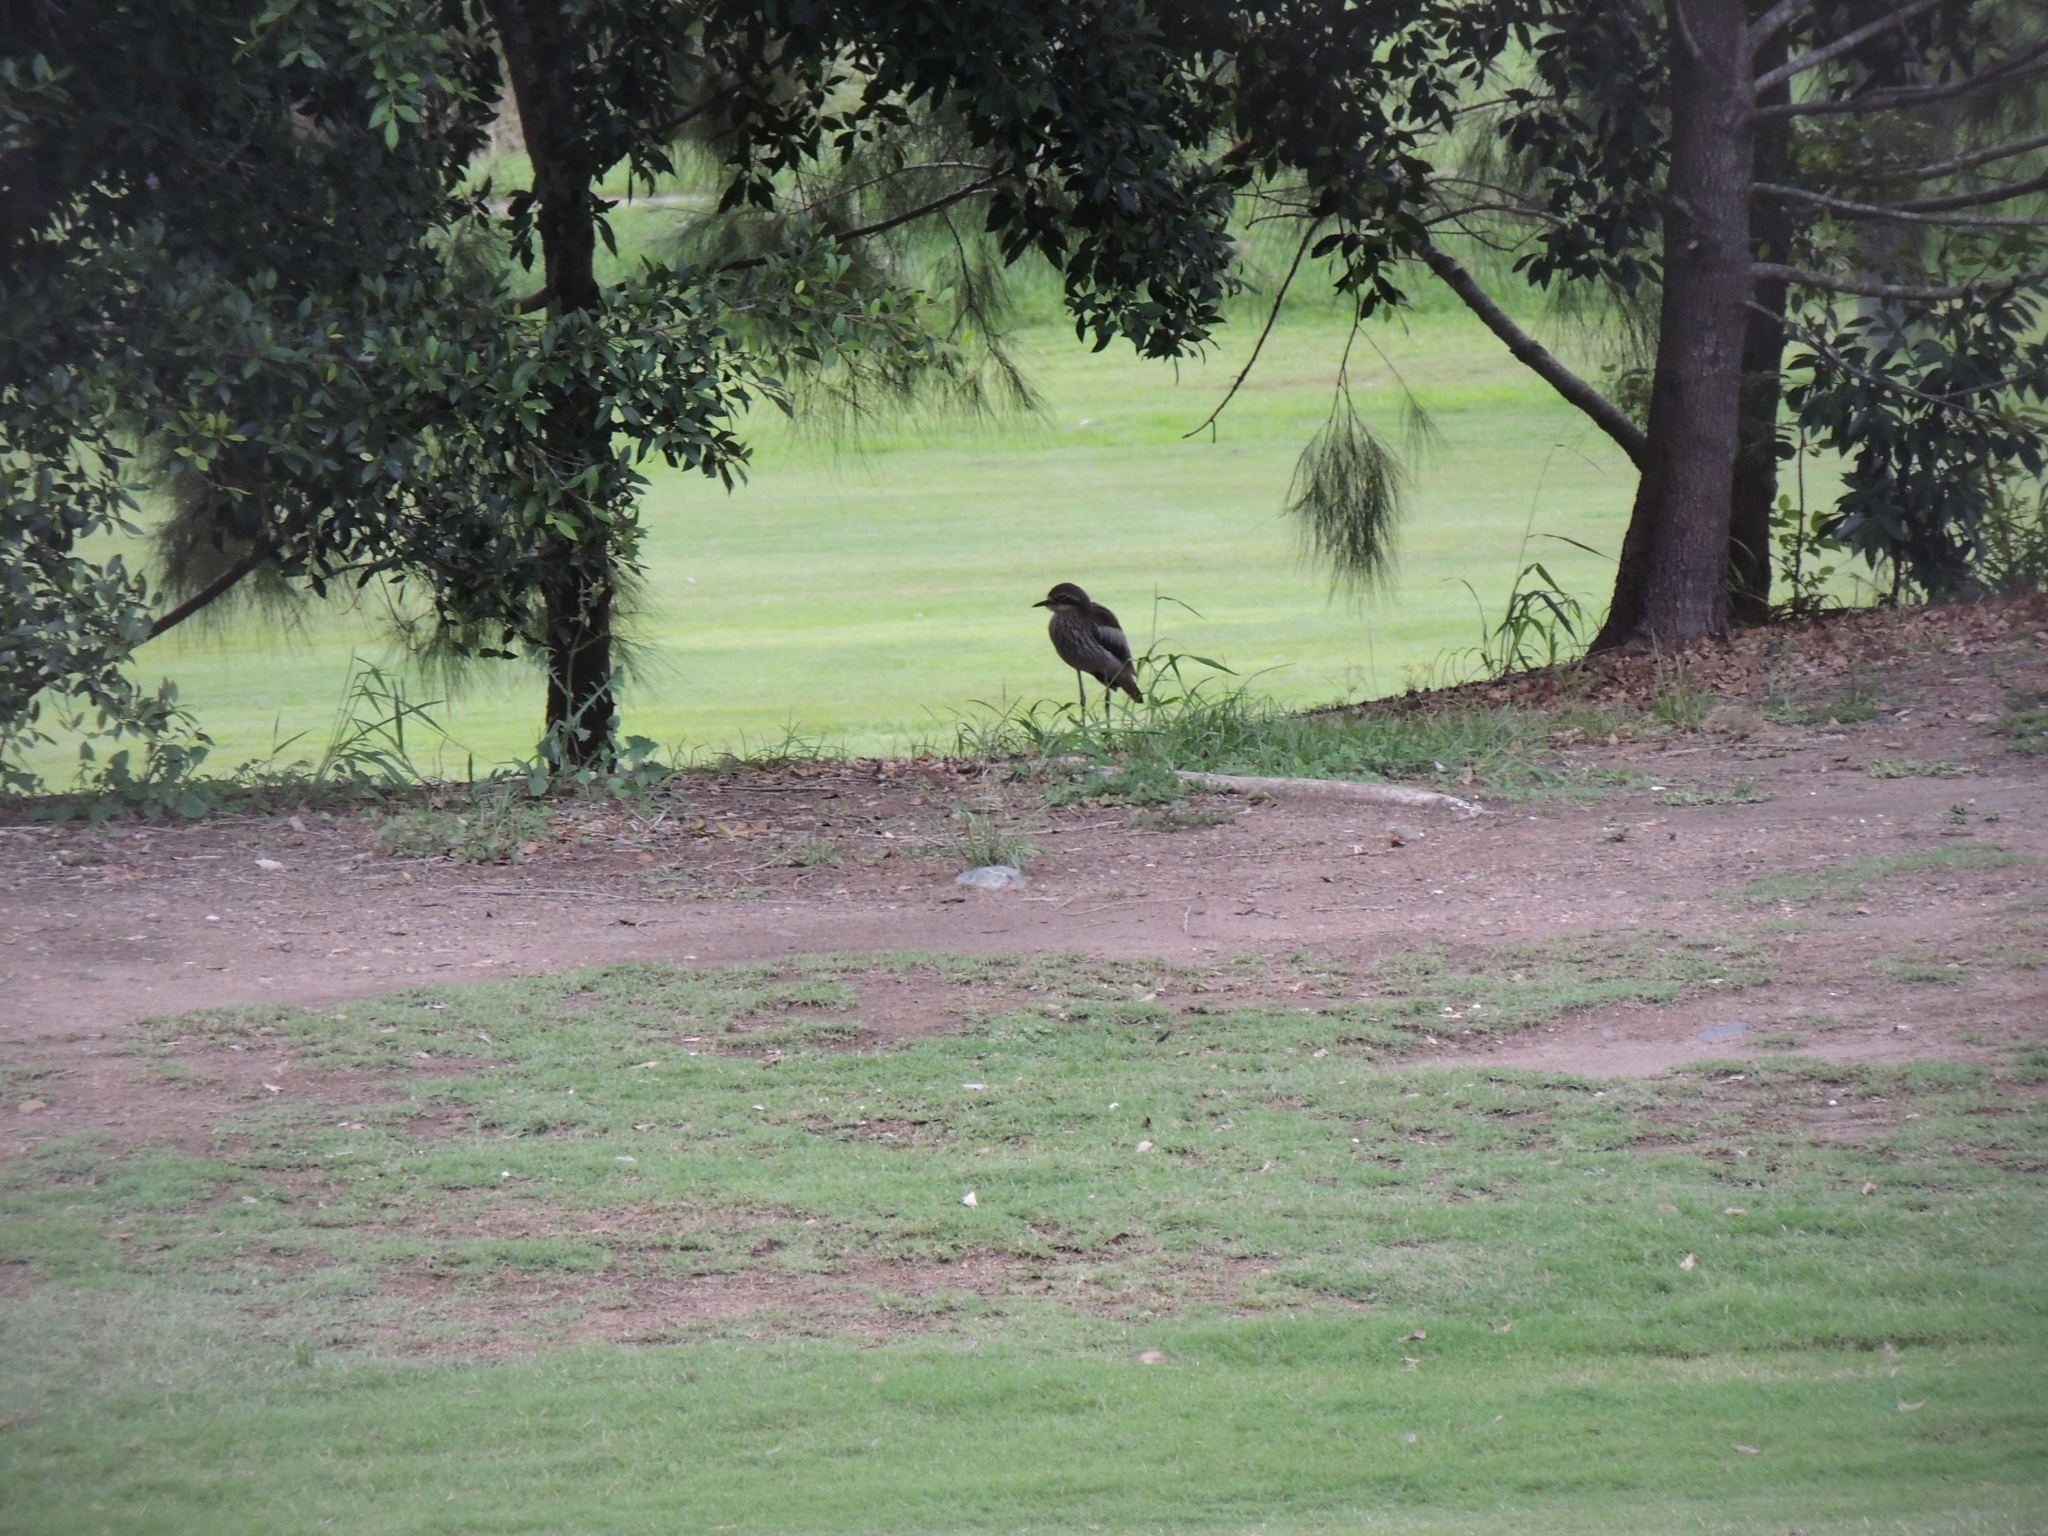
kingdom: Animalia
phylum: Chordata
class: Aves
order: Charadriiformes
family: Burhinidae
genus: Burhinus
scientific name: Burhinus grallarius
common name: Bush stone-curlew
